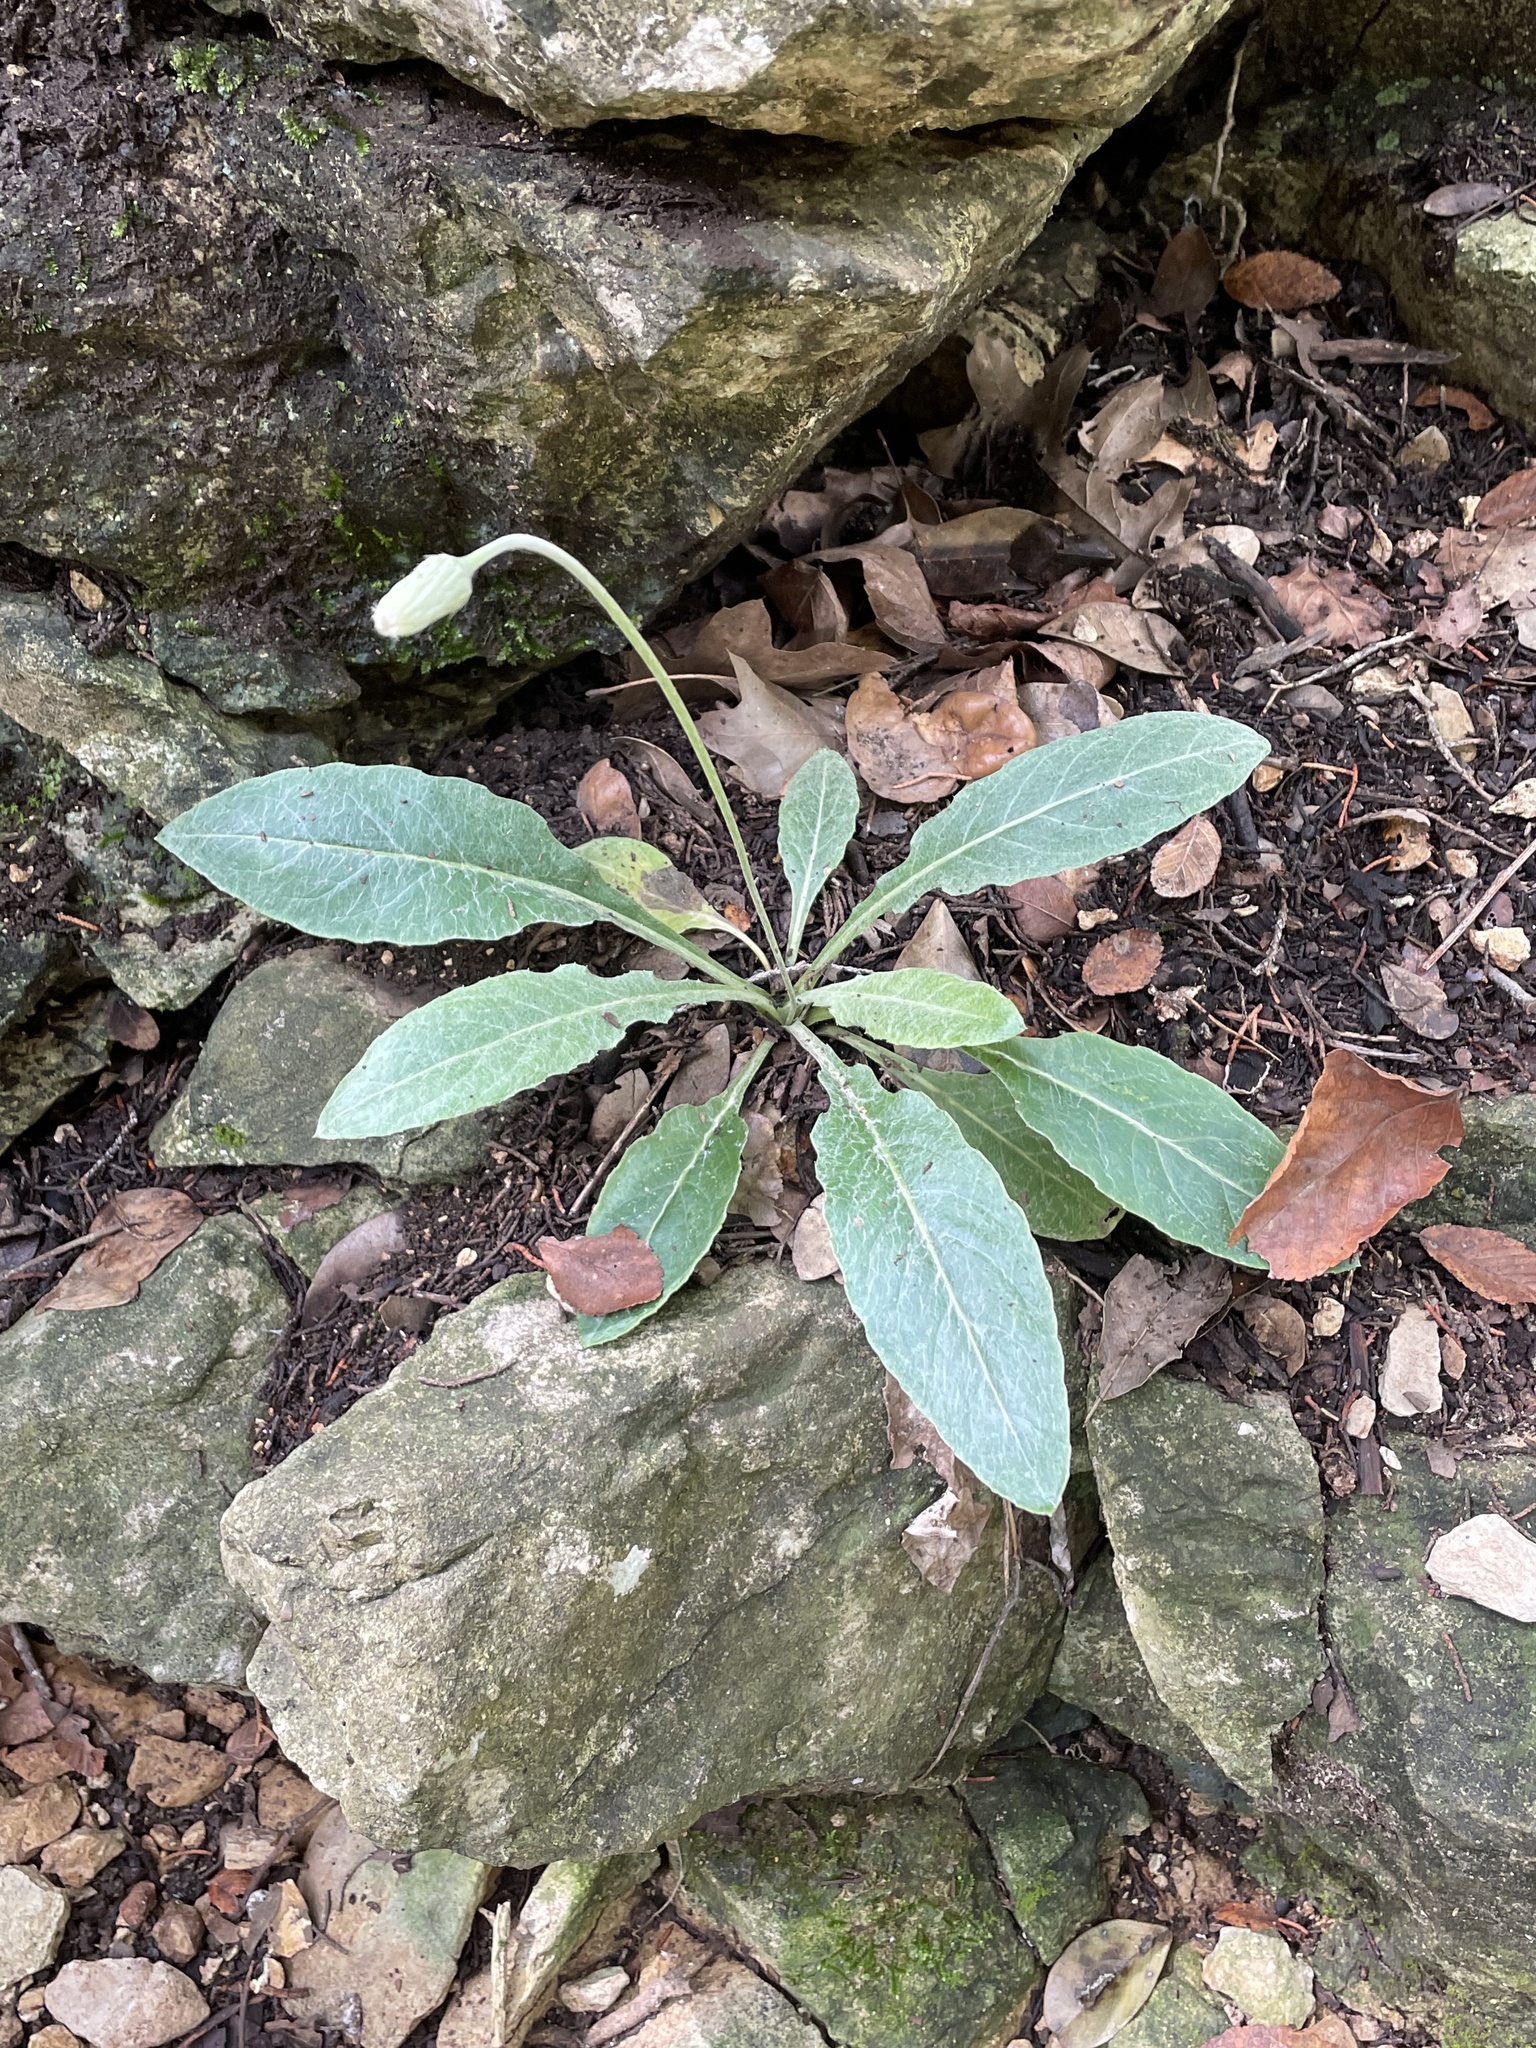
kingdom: Plantae
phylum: Tracheophyta
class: Magnoliopsida
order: Asterales
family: Asteraceae
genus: Chaptalia
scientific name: Chaptalia texana
